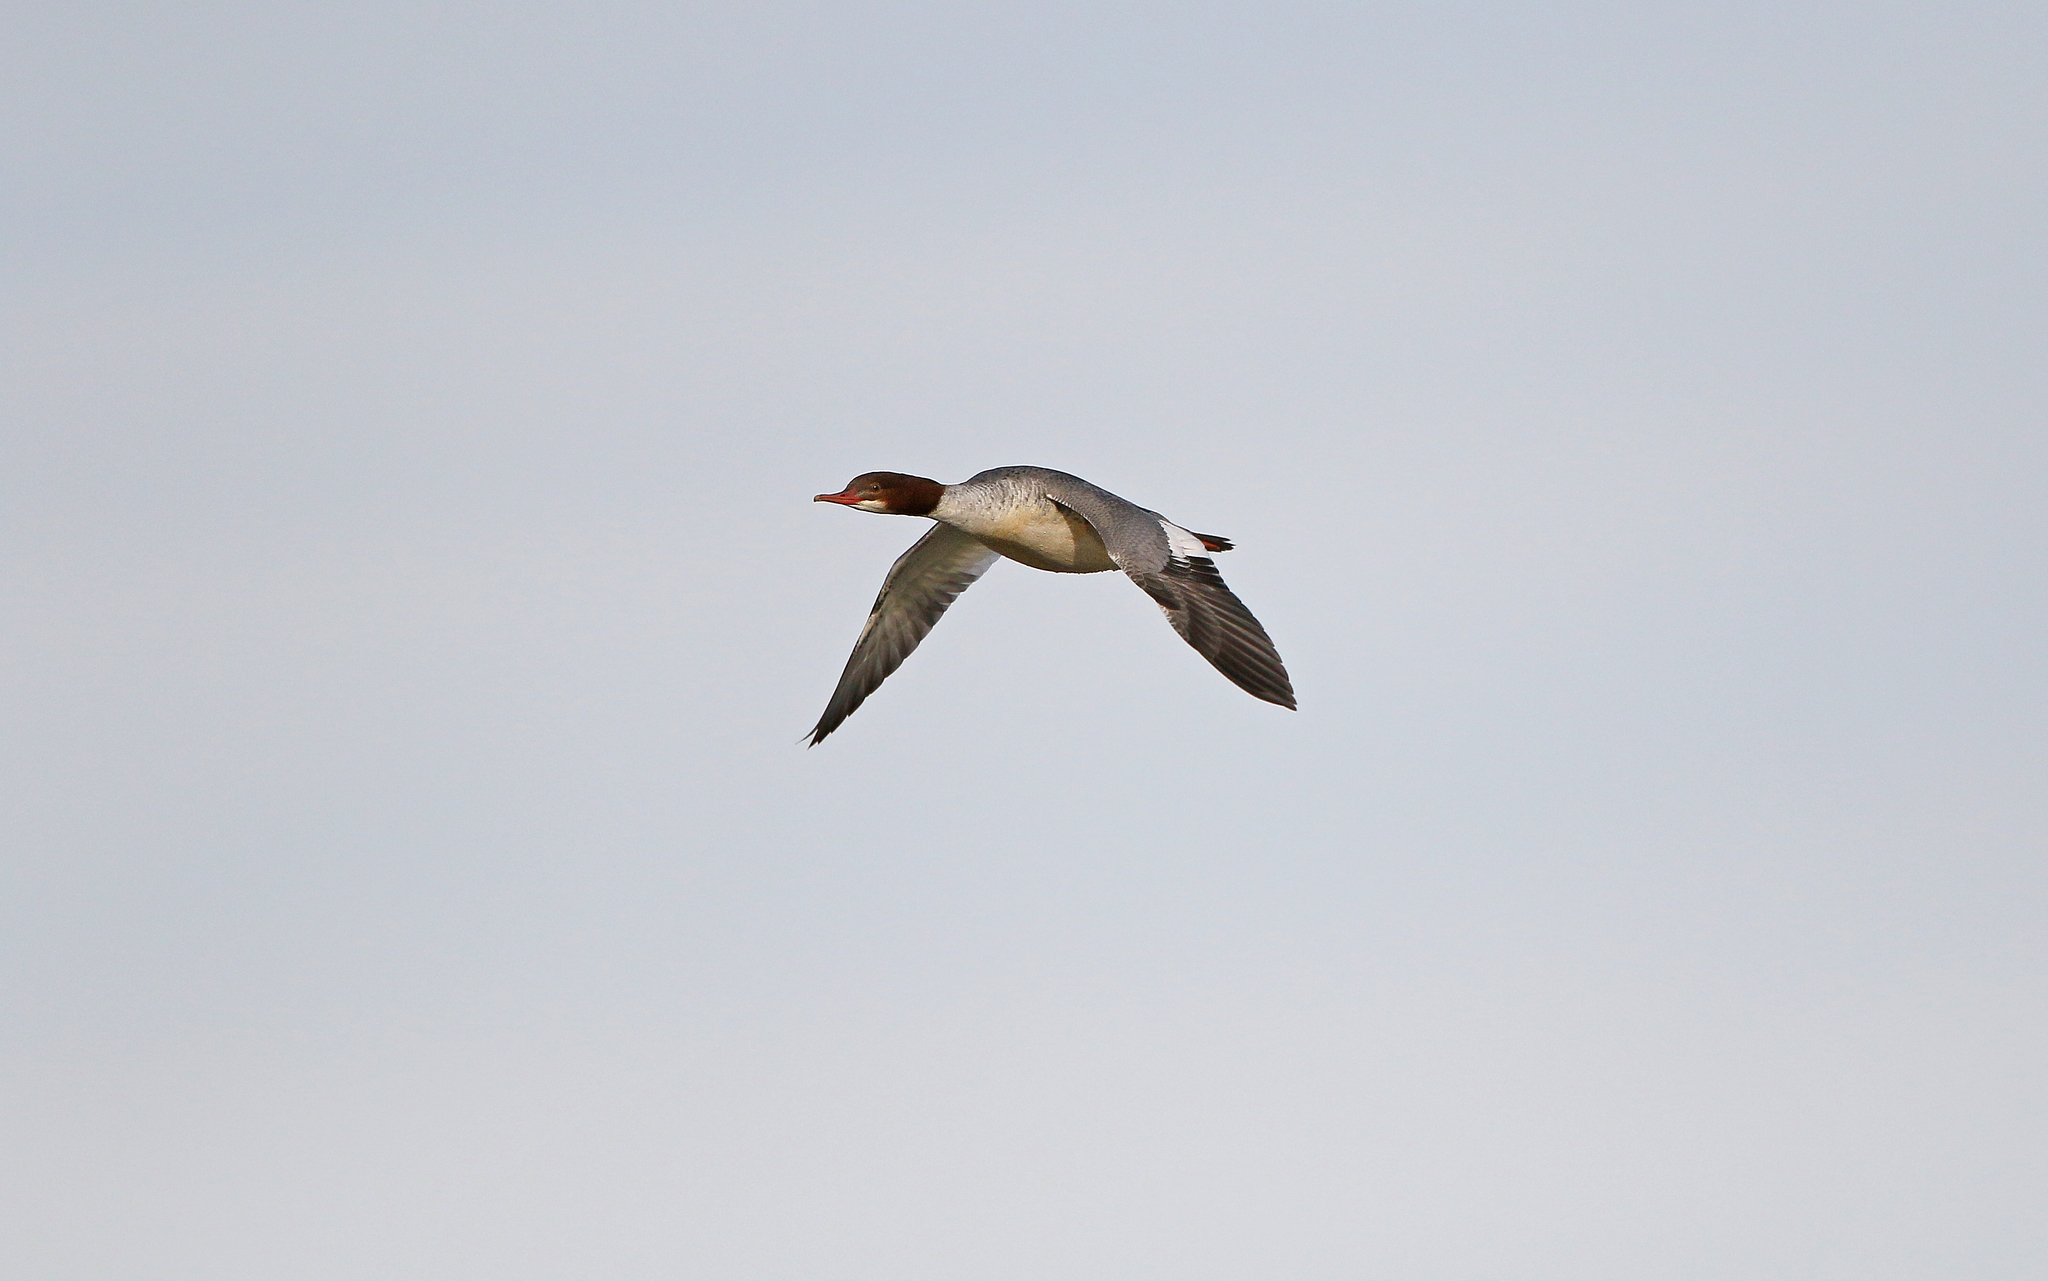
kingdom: Animalia
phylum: Chordata
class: Aves
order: Anseriformes
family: Anatidae
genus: Mergus
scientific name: Mergus merganser
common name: Common merganser
